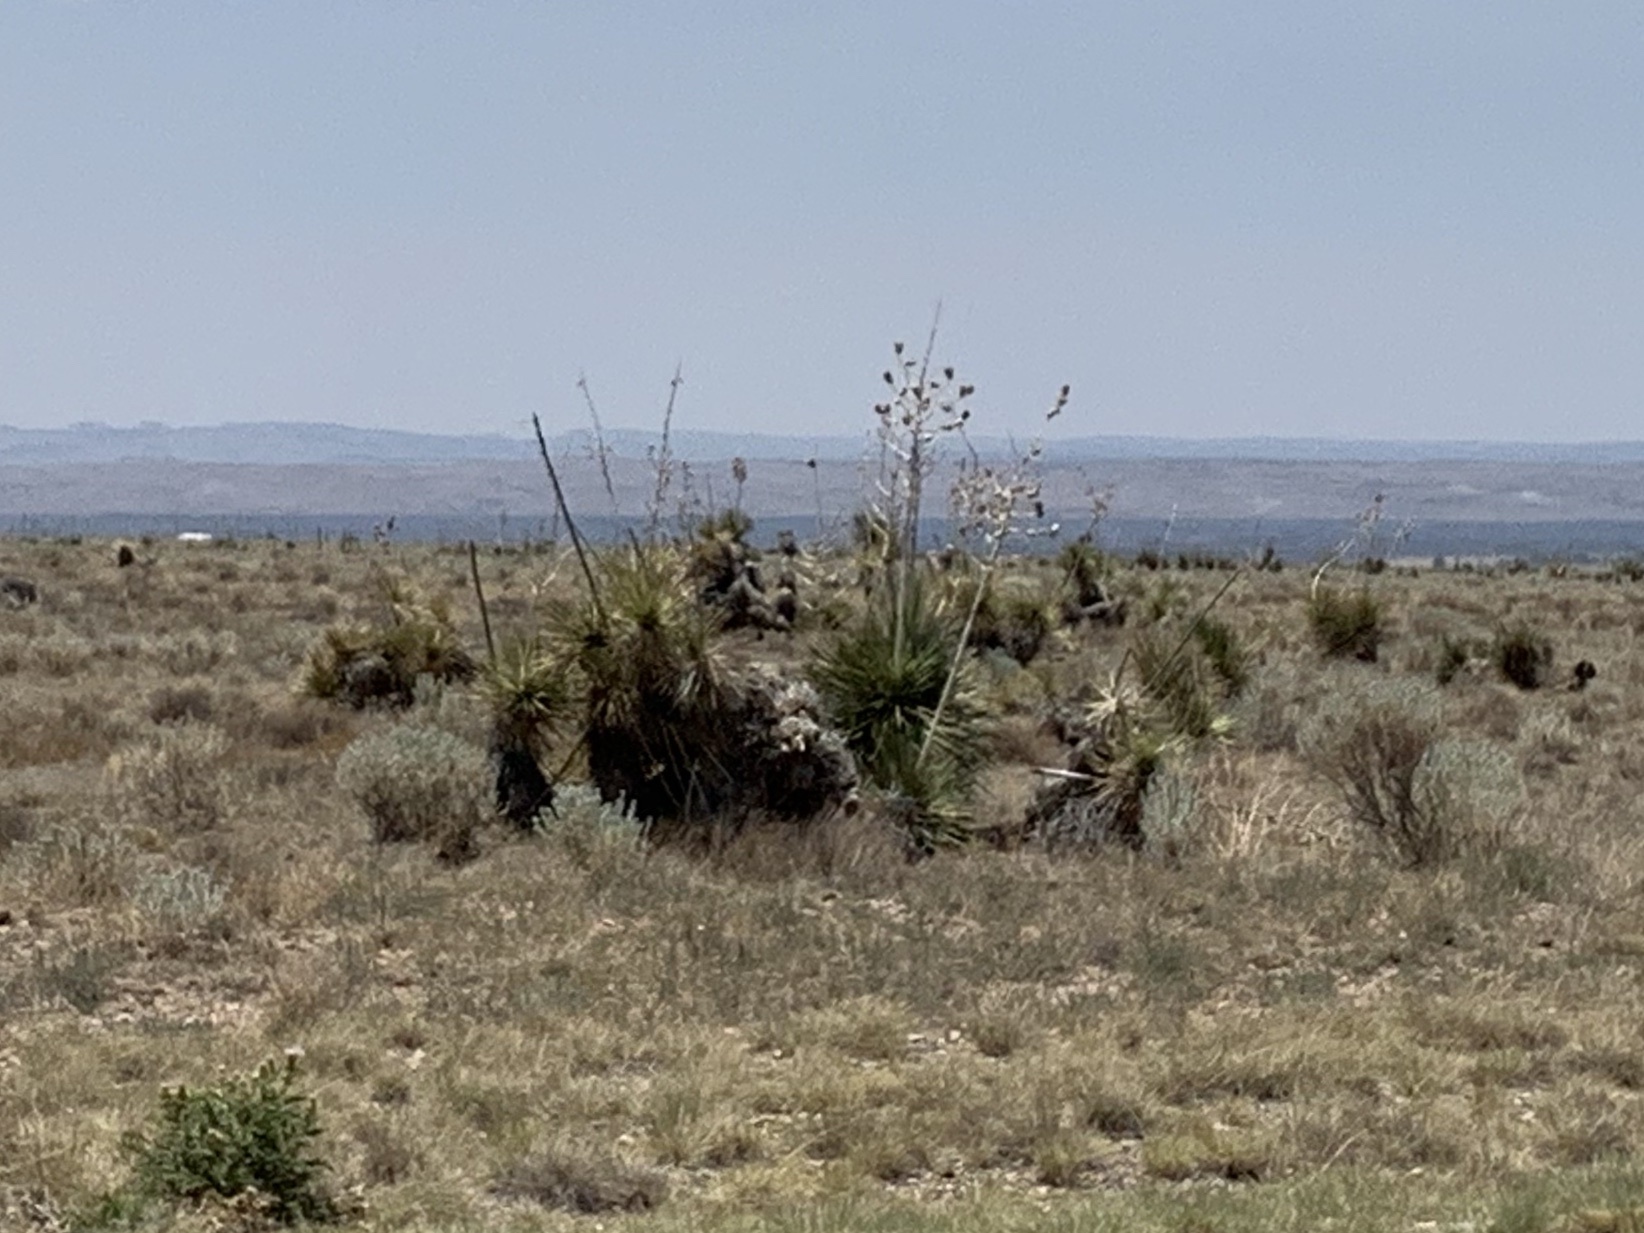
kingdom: Plantae
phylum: Tracheophyta
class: Liliopsida
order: Asparagales
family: Asparagaceae
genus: Yucca
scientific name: Yucca elata
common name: Palmella
